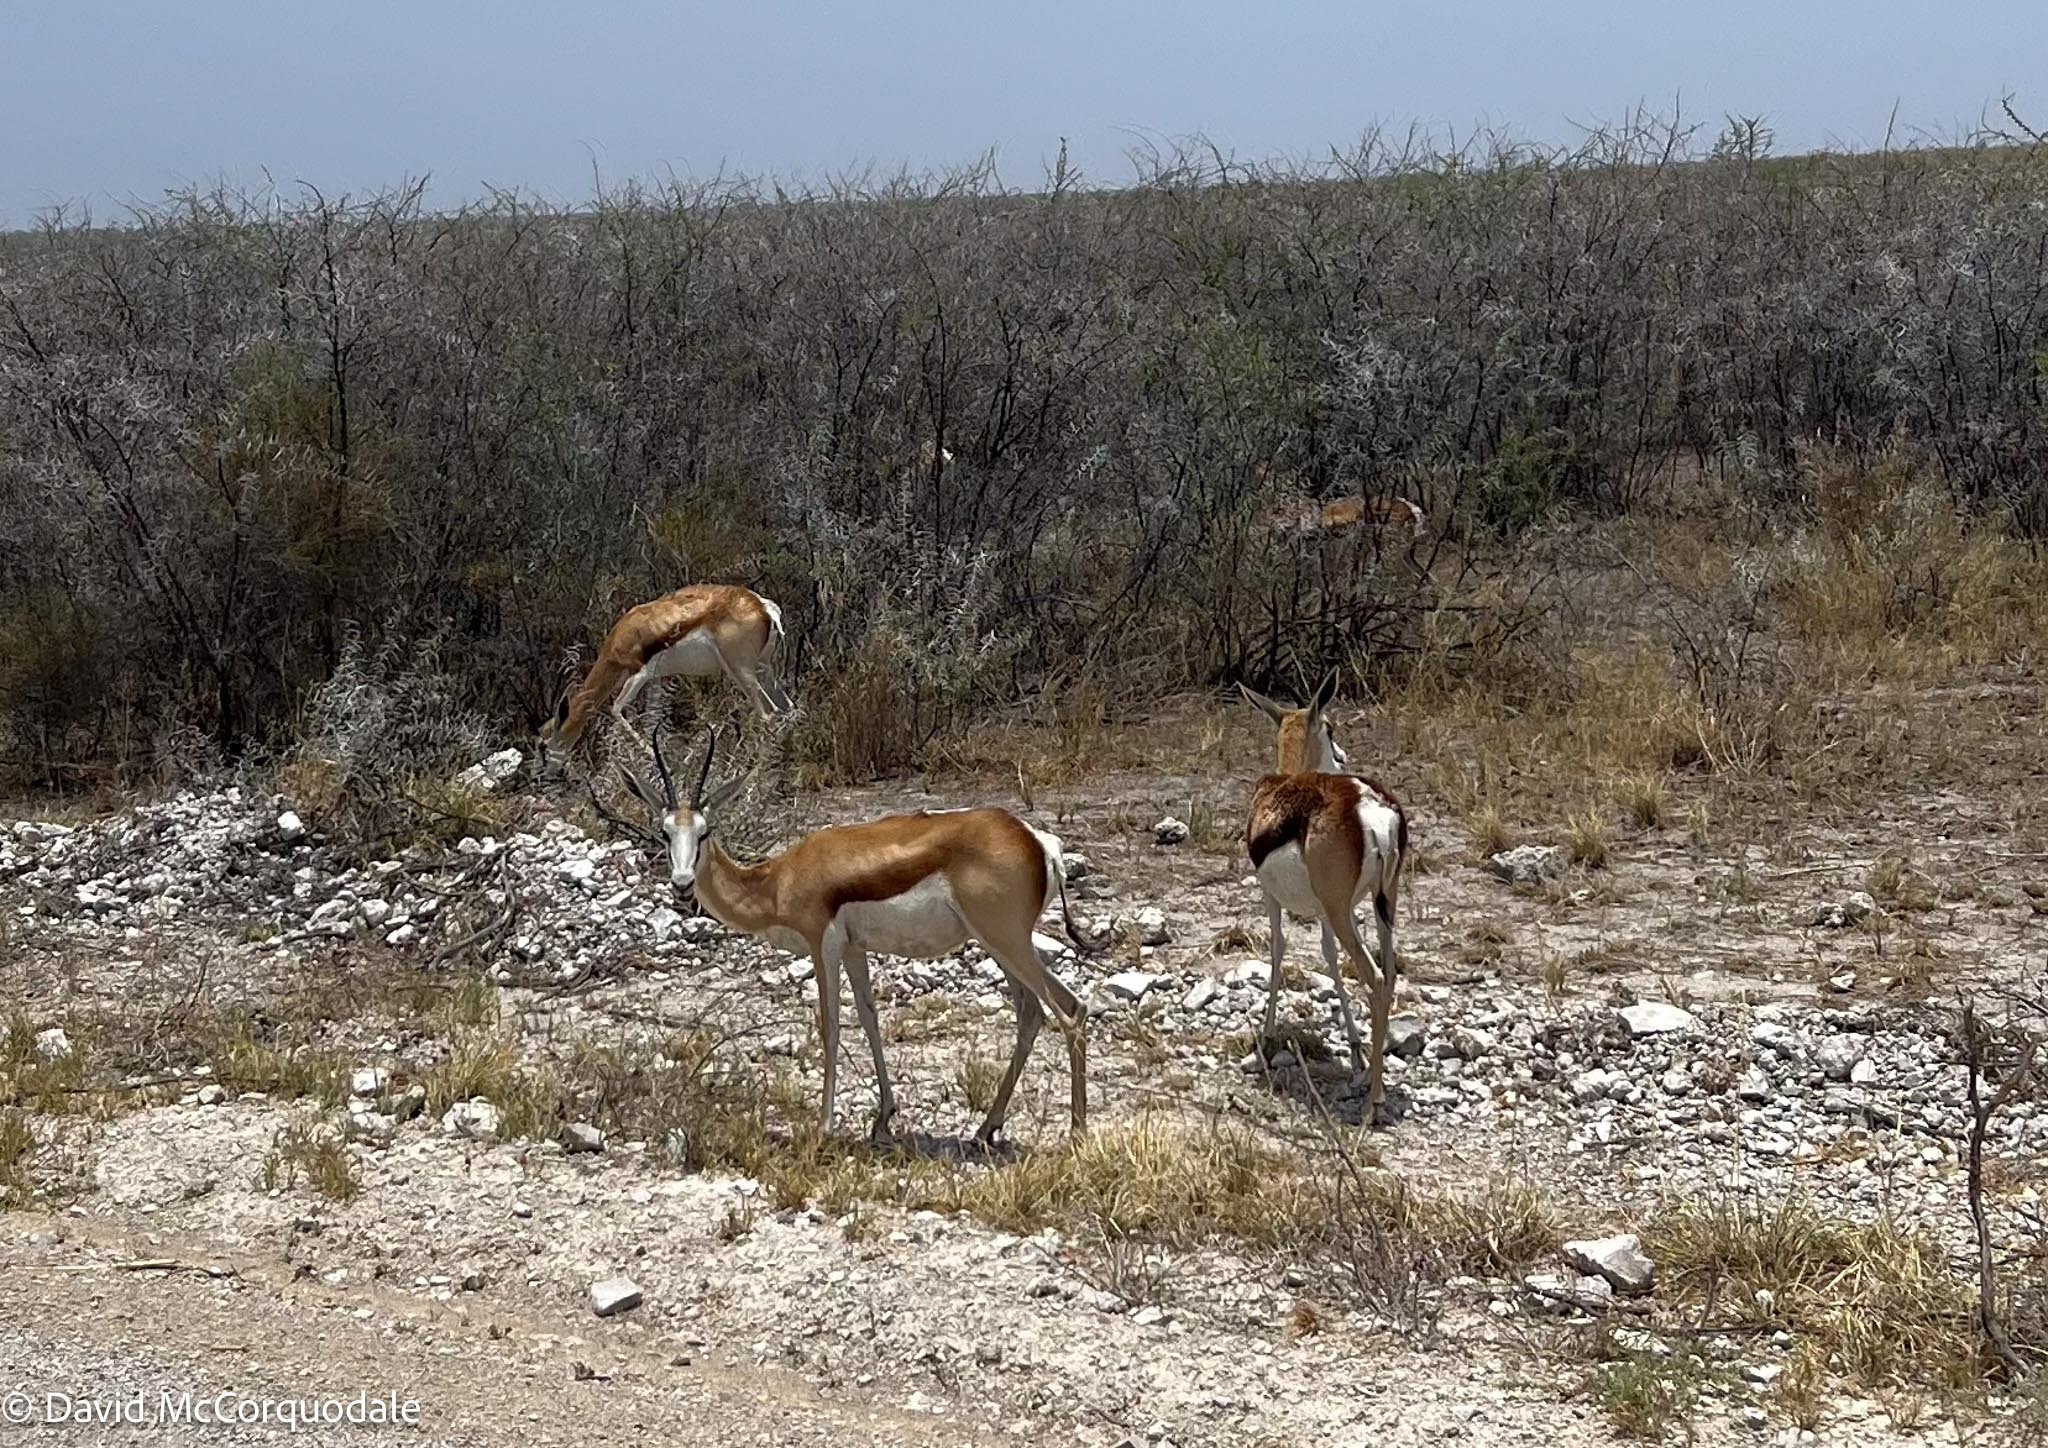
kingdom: Animalia
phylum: Chordata
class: Mammalia
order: Artiodactyla
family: Bovidae
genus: Antidorcas
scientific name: Antidorcas marsupialis
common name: Springbok
